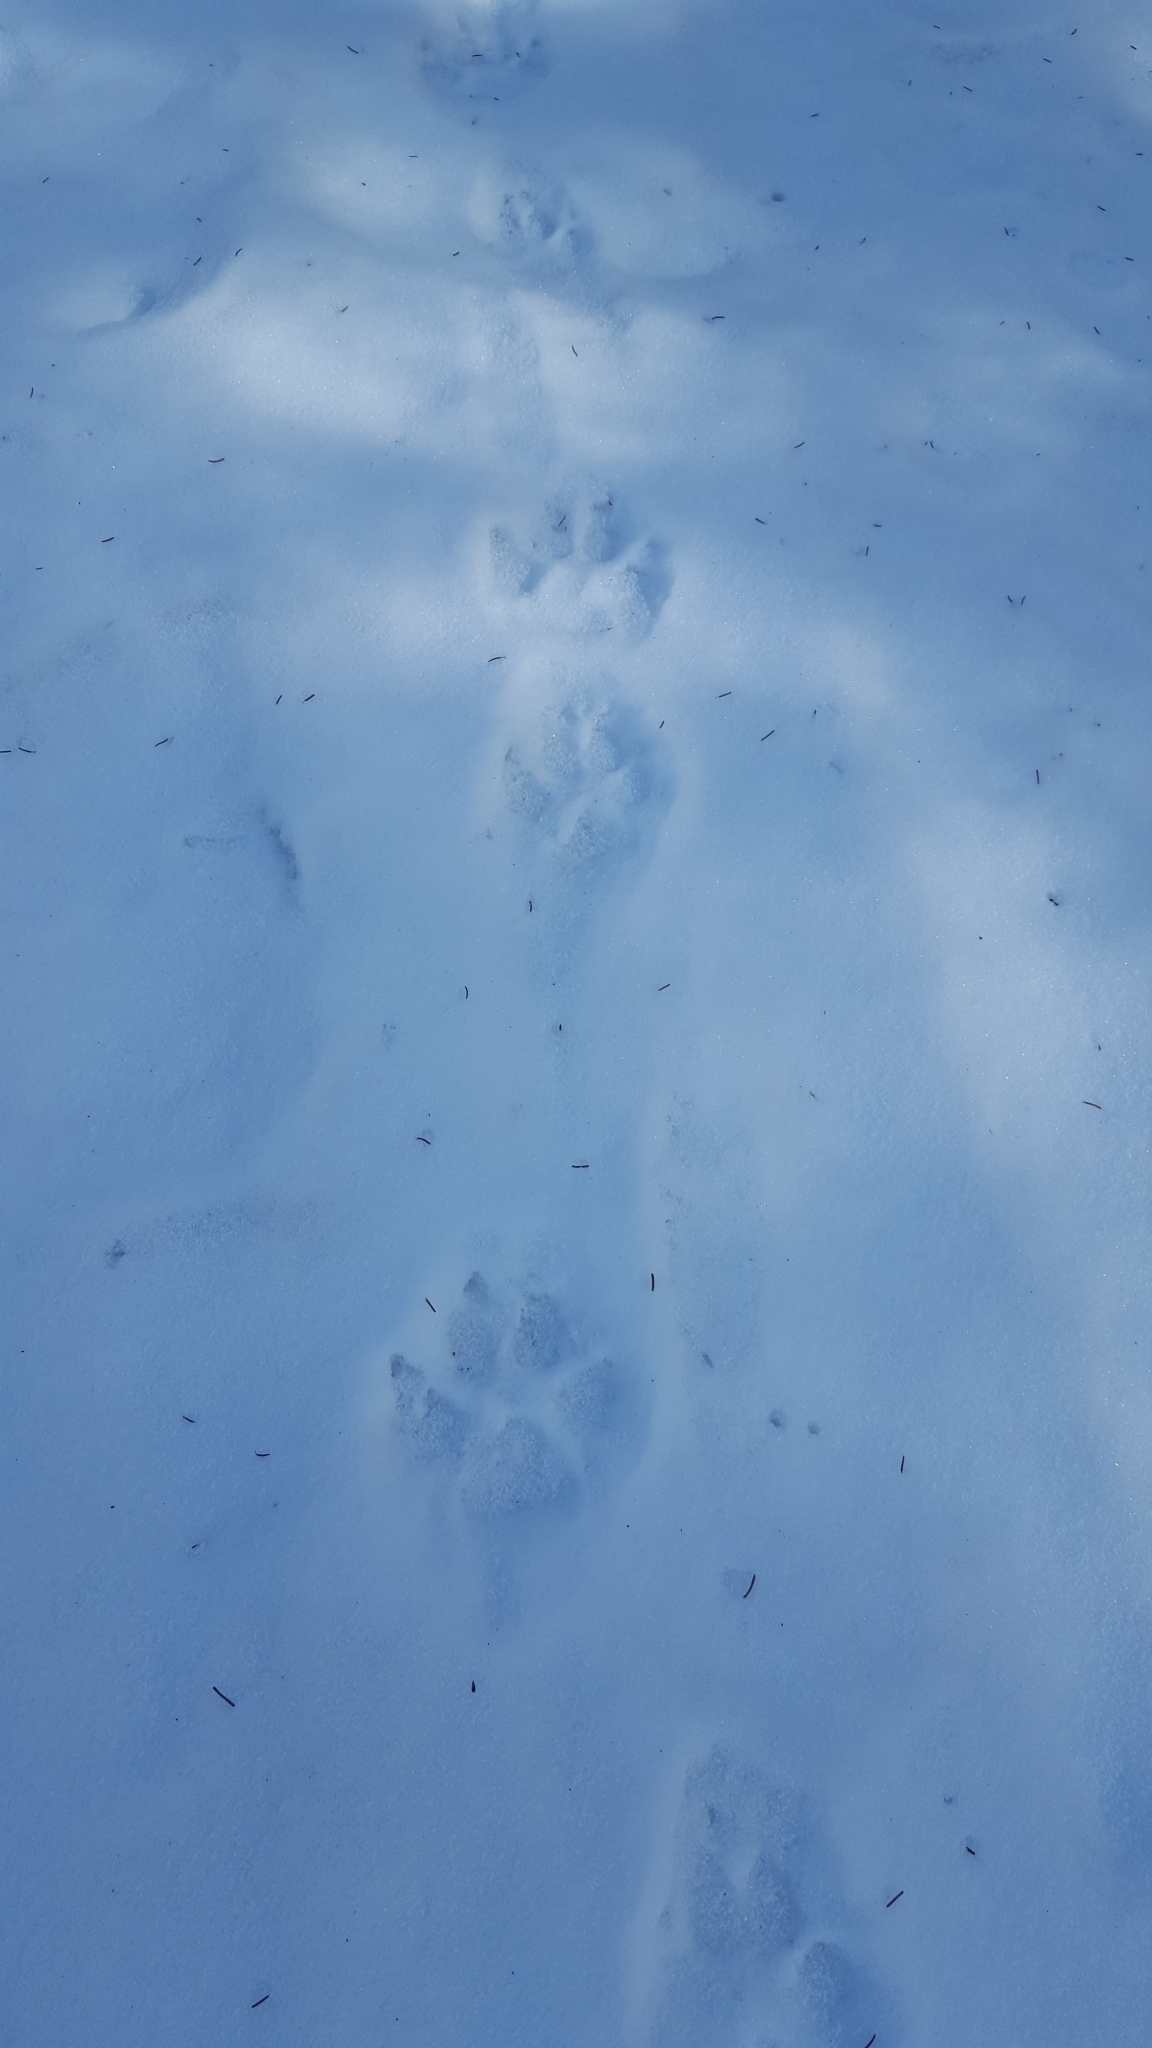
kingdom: Animalia
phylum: Chordata
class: Mammalia
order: Carnivora
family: Canidae
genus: Canis
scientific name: Canis lupus
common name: Gray wolf
